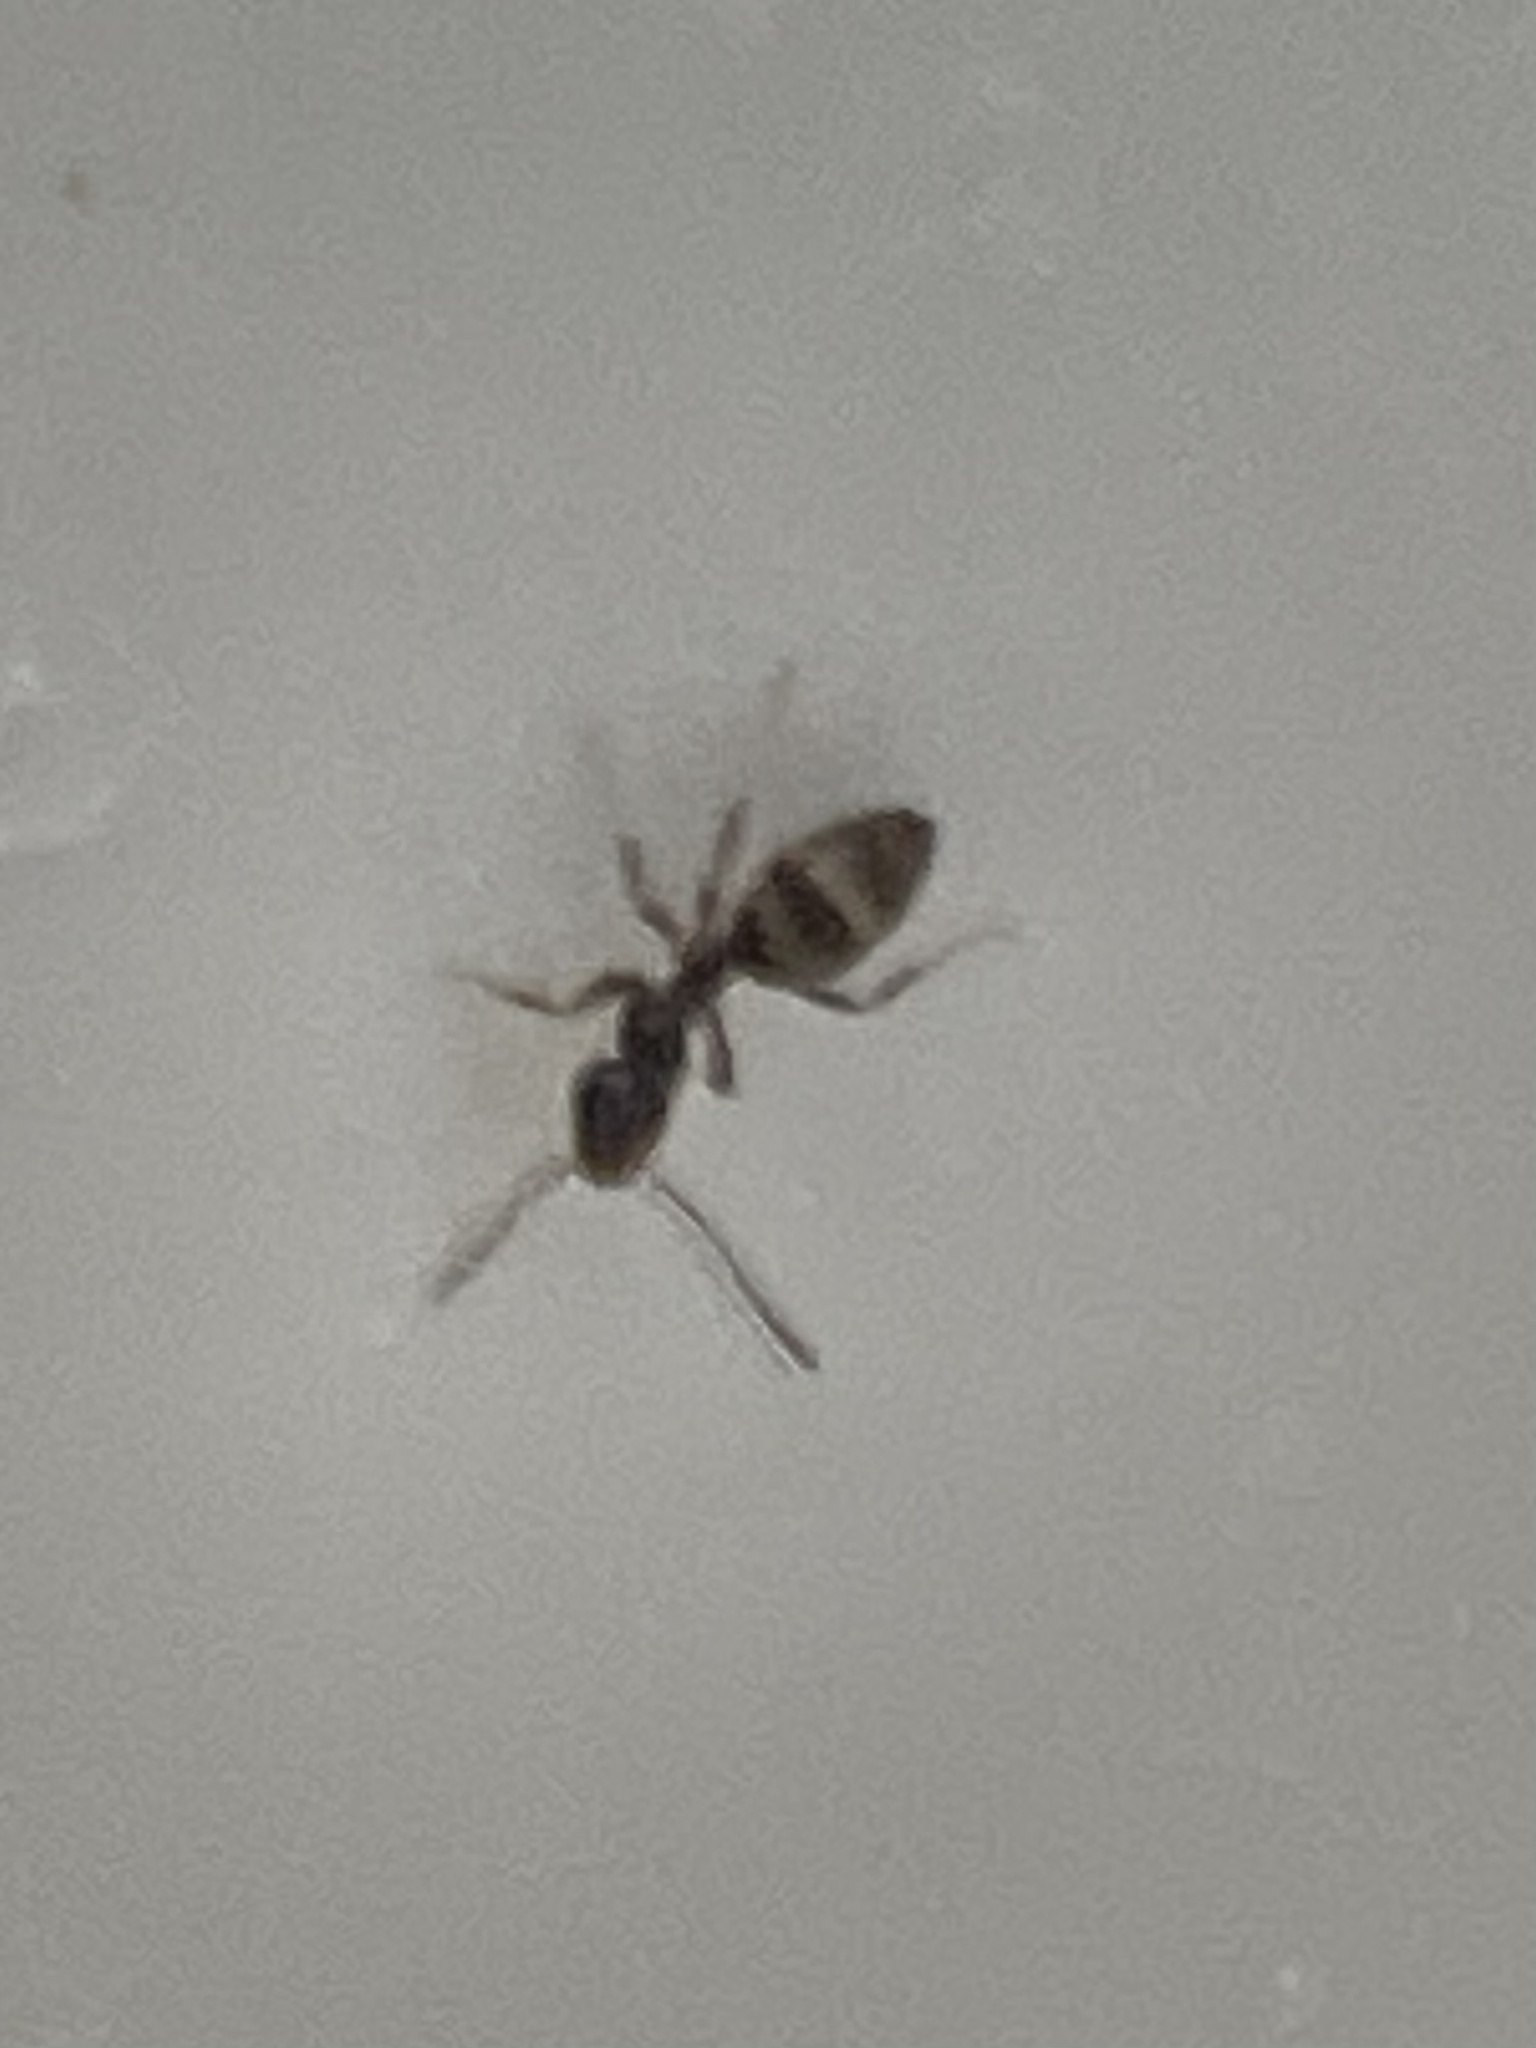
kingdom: Animalia
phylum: Arthropoda
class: Insecta
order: Hymenoptera
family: Formicidae
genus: Tapinoma
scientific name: Tapinoma sessile
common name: Odorous house ant
